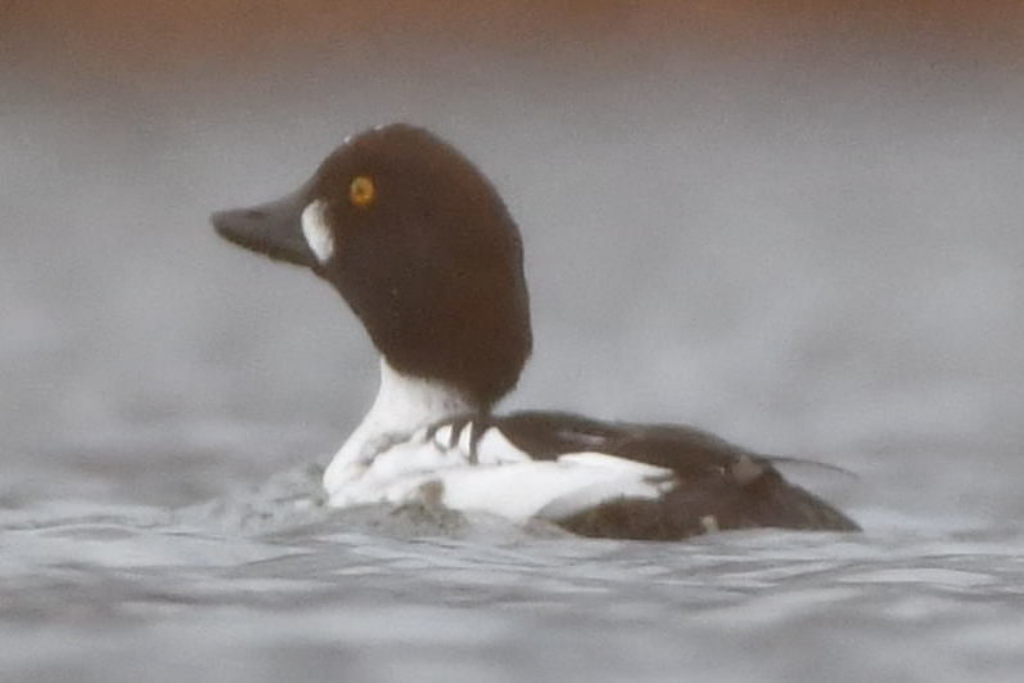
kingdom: Animalia
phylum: Chordata
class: Aves
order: Anseriformes
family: Anatidae
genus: Bucephala
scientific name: Bucephala clangula
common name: Common goldeneye
